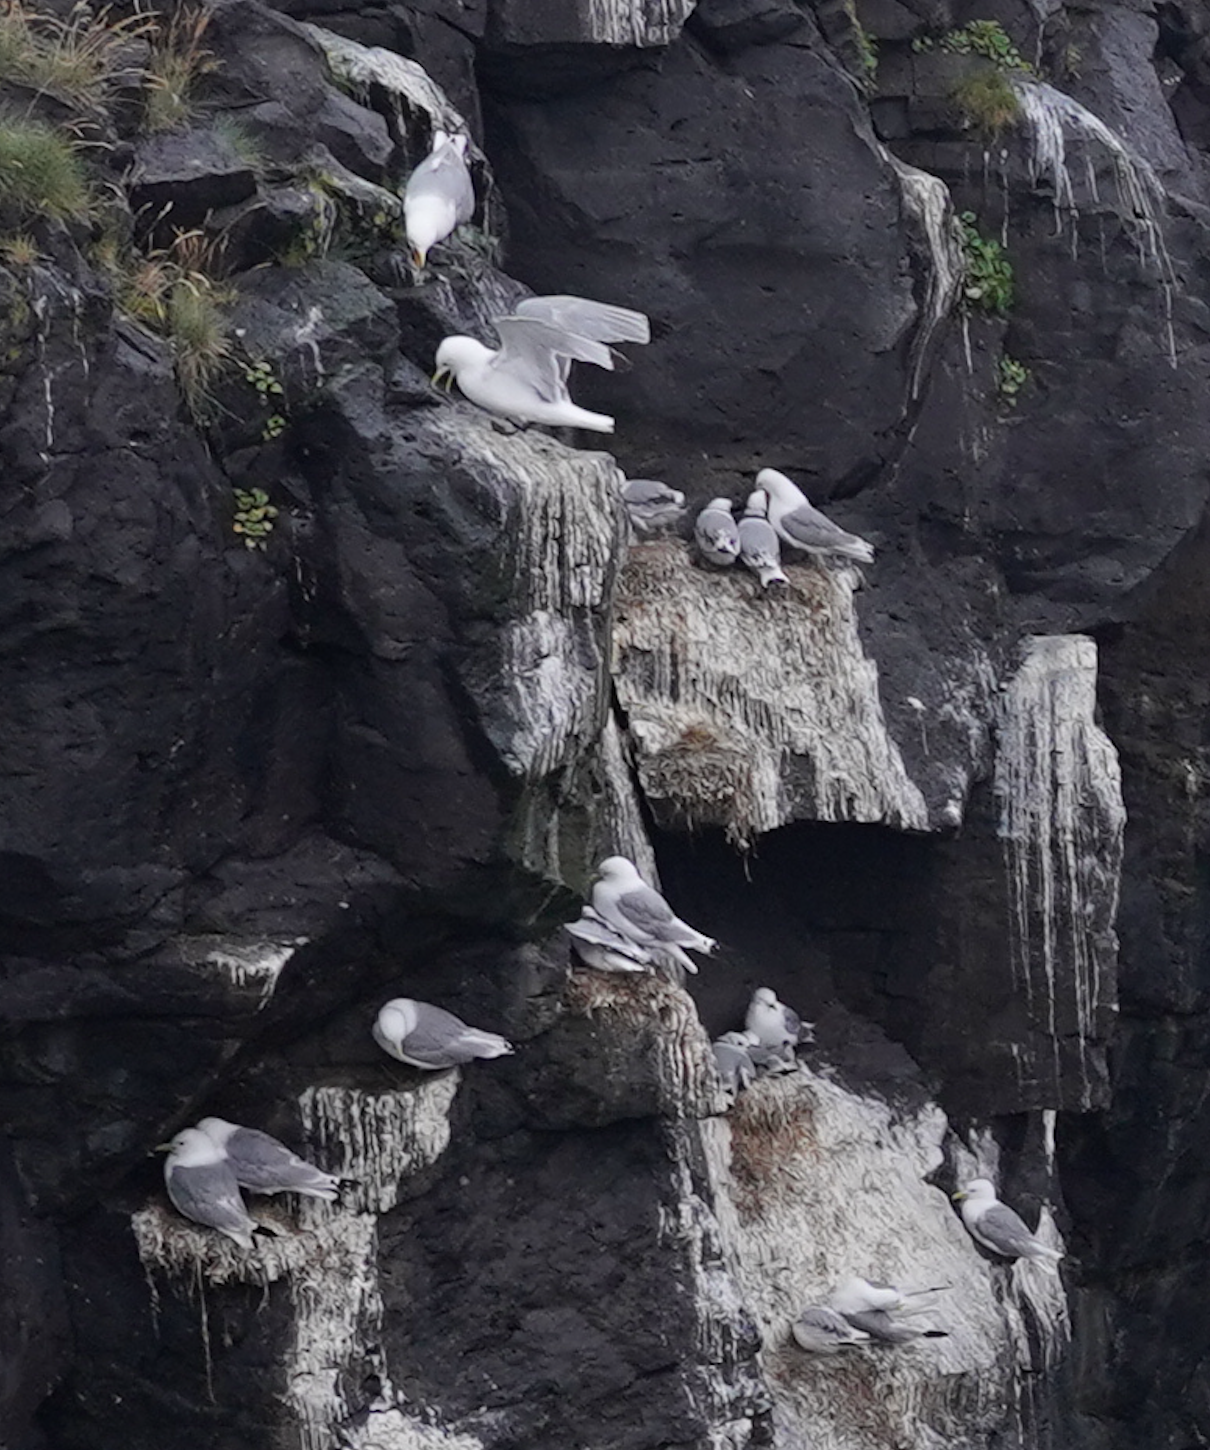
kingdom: Animalia
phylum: Chordata
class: Aves
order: Charadriiformes
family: Laridae
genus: Rissa
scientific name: Rissa tridactyla
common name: Black-legged kittiwake
